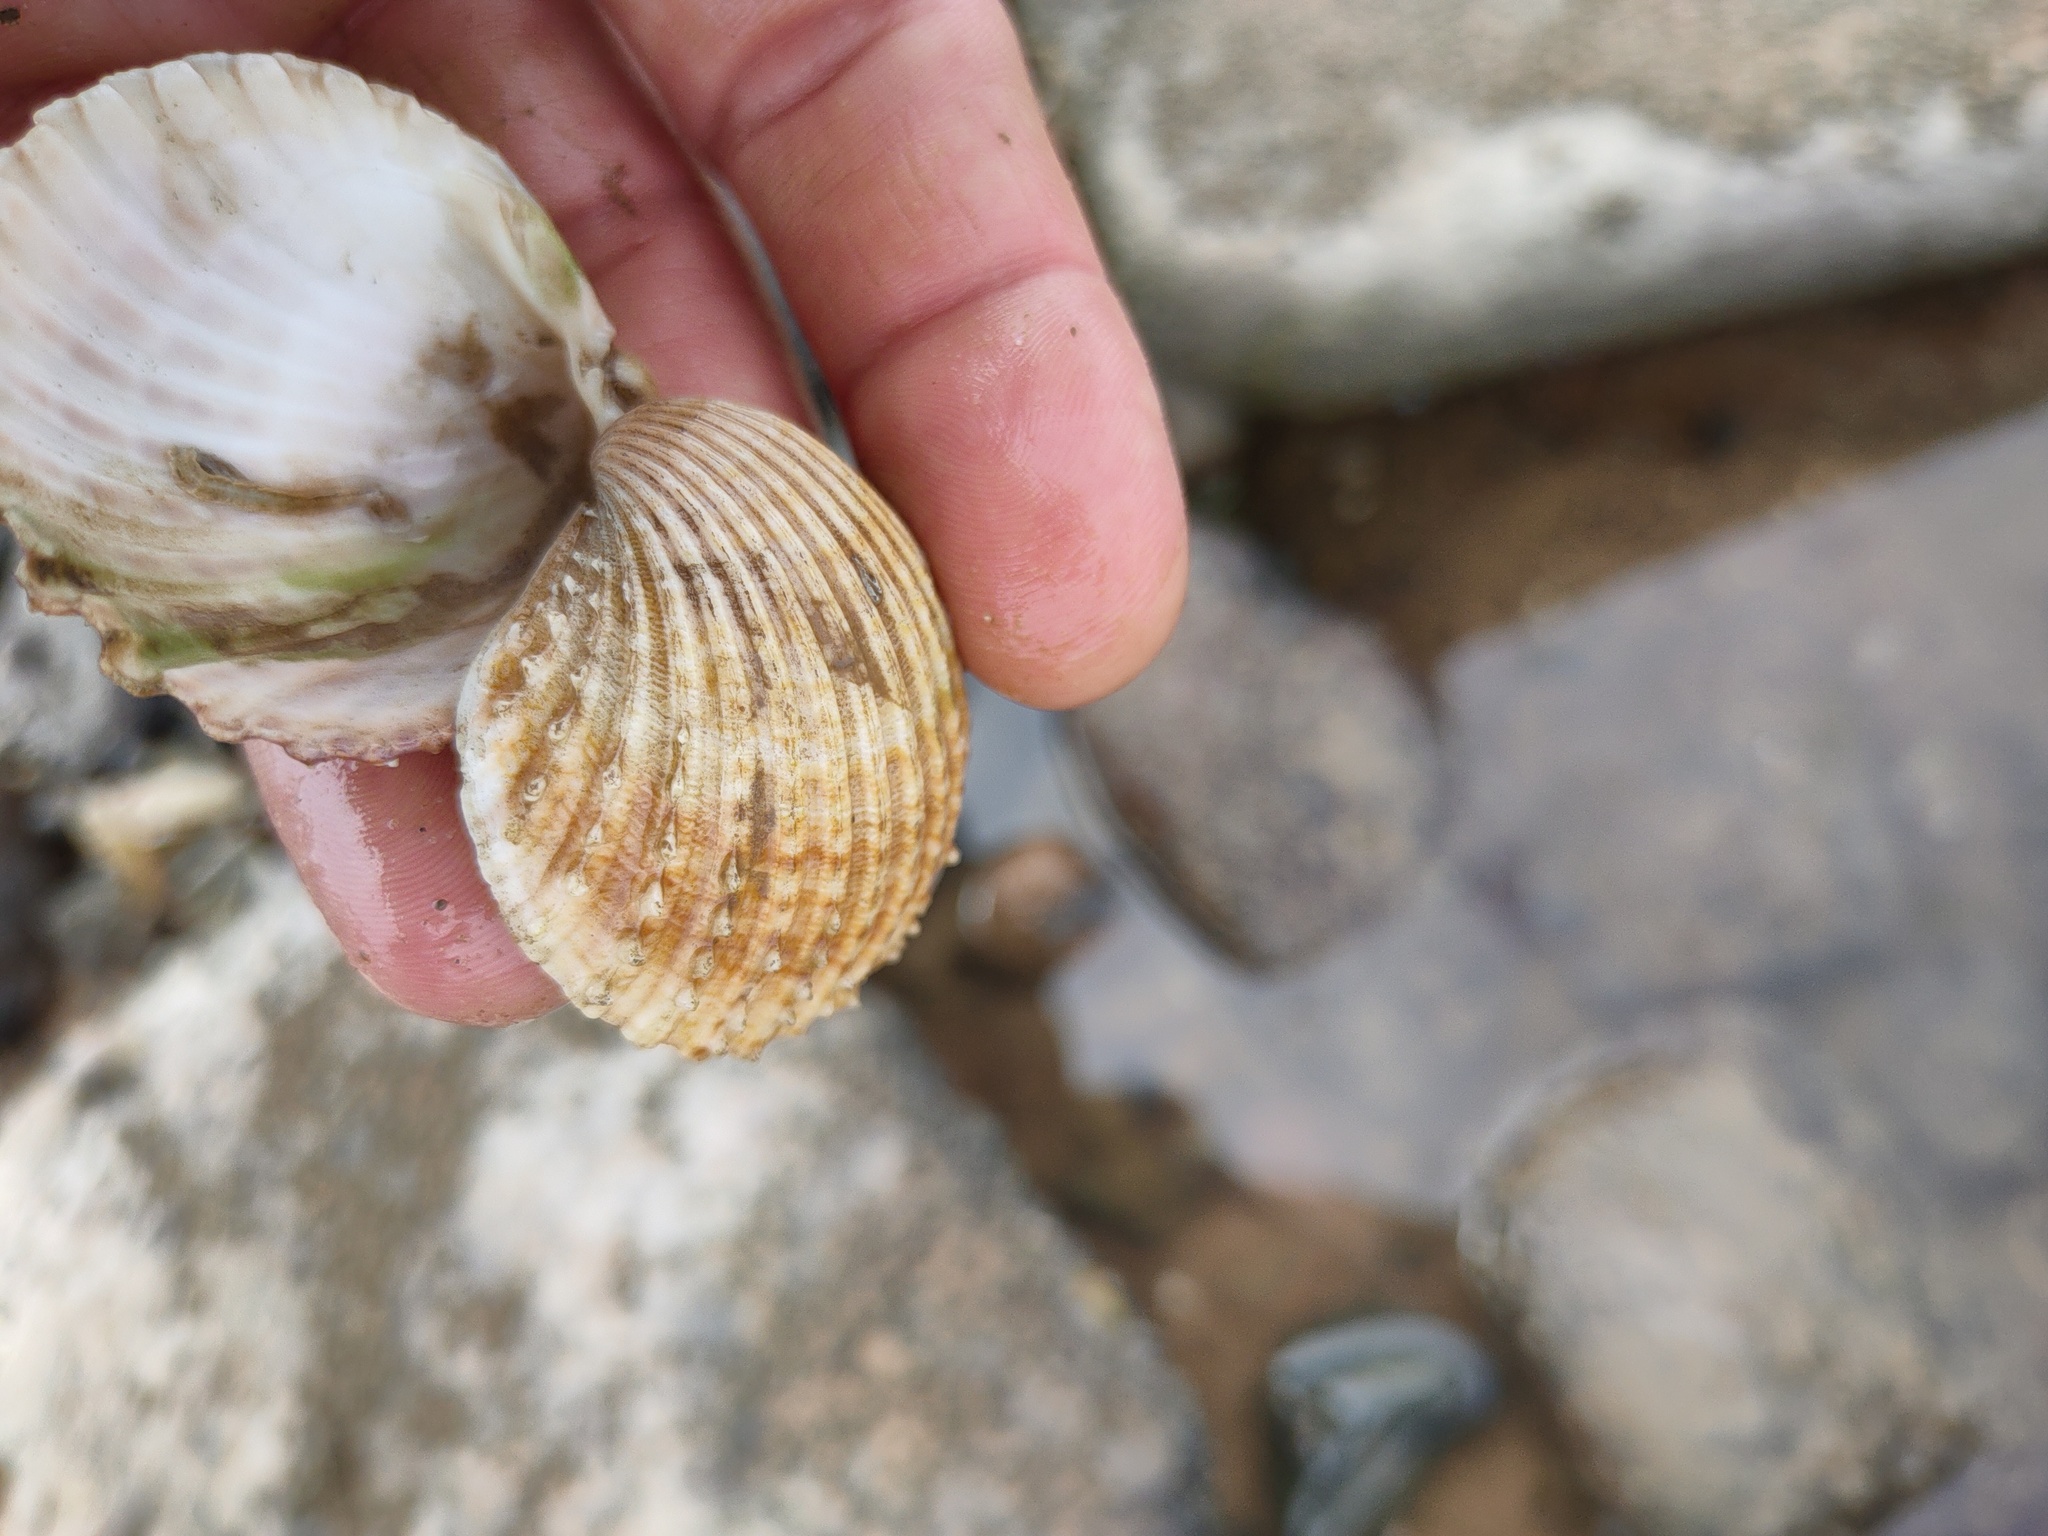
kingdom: Animalia
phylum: Mollusca
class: Bivalvia
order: Cardiida
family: Cardiidae
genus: Acanthocardia
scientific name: Acanthocardia echinata
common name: Prickly cockle
